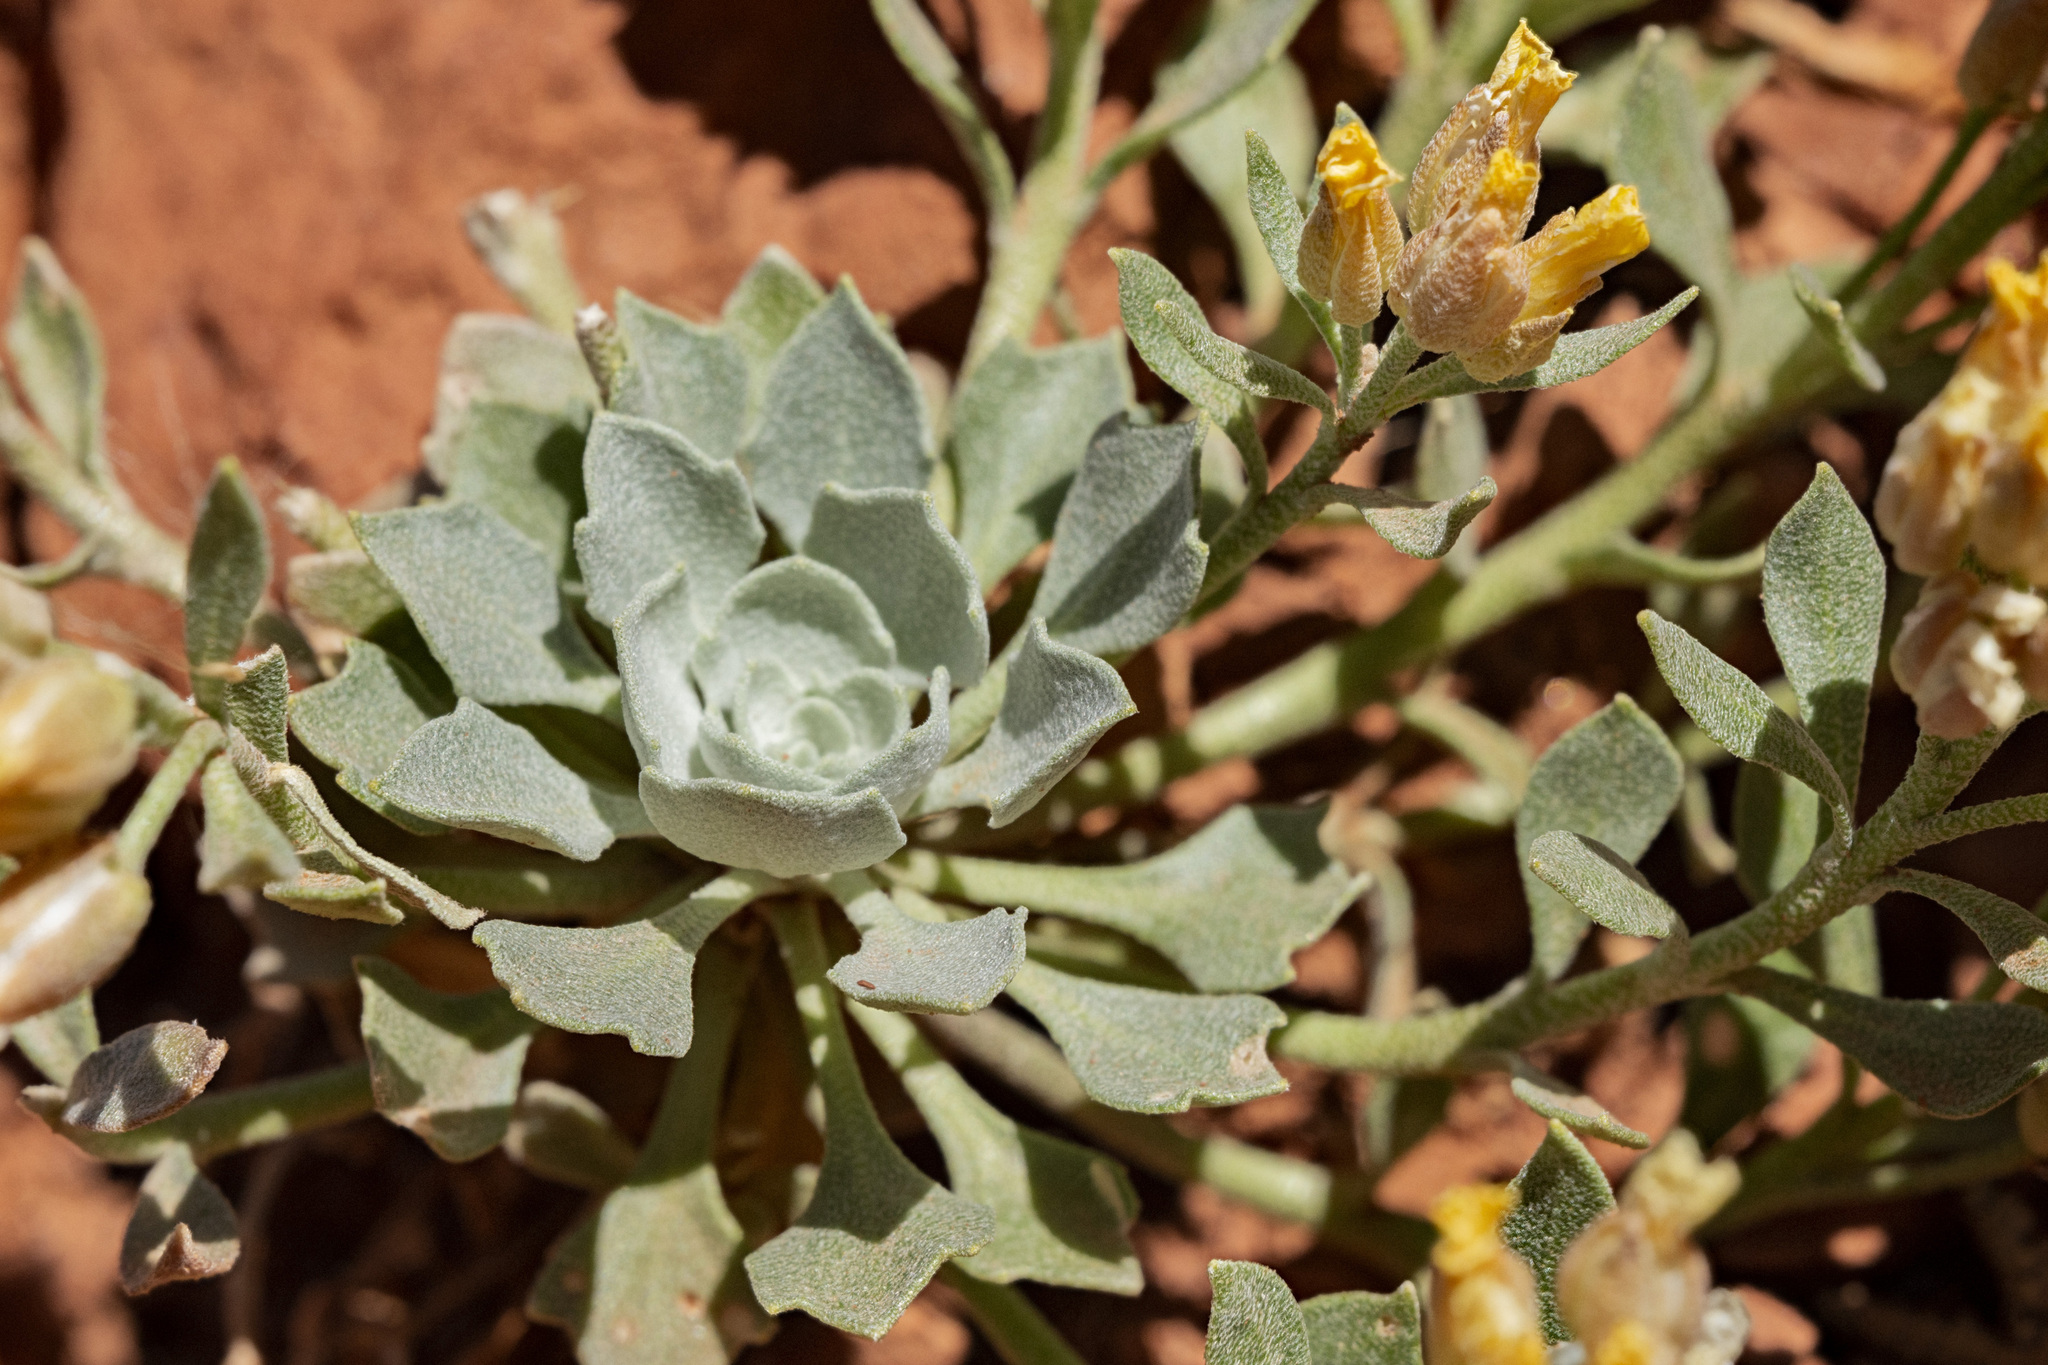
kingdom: Plantae
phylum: Tracheophyta
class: Magnoliopsida
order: Brassicales
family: Brassicaceae
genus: Physaria
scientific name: Physaria acutifolia
